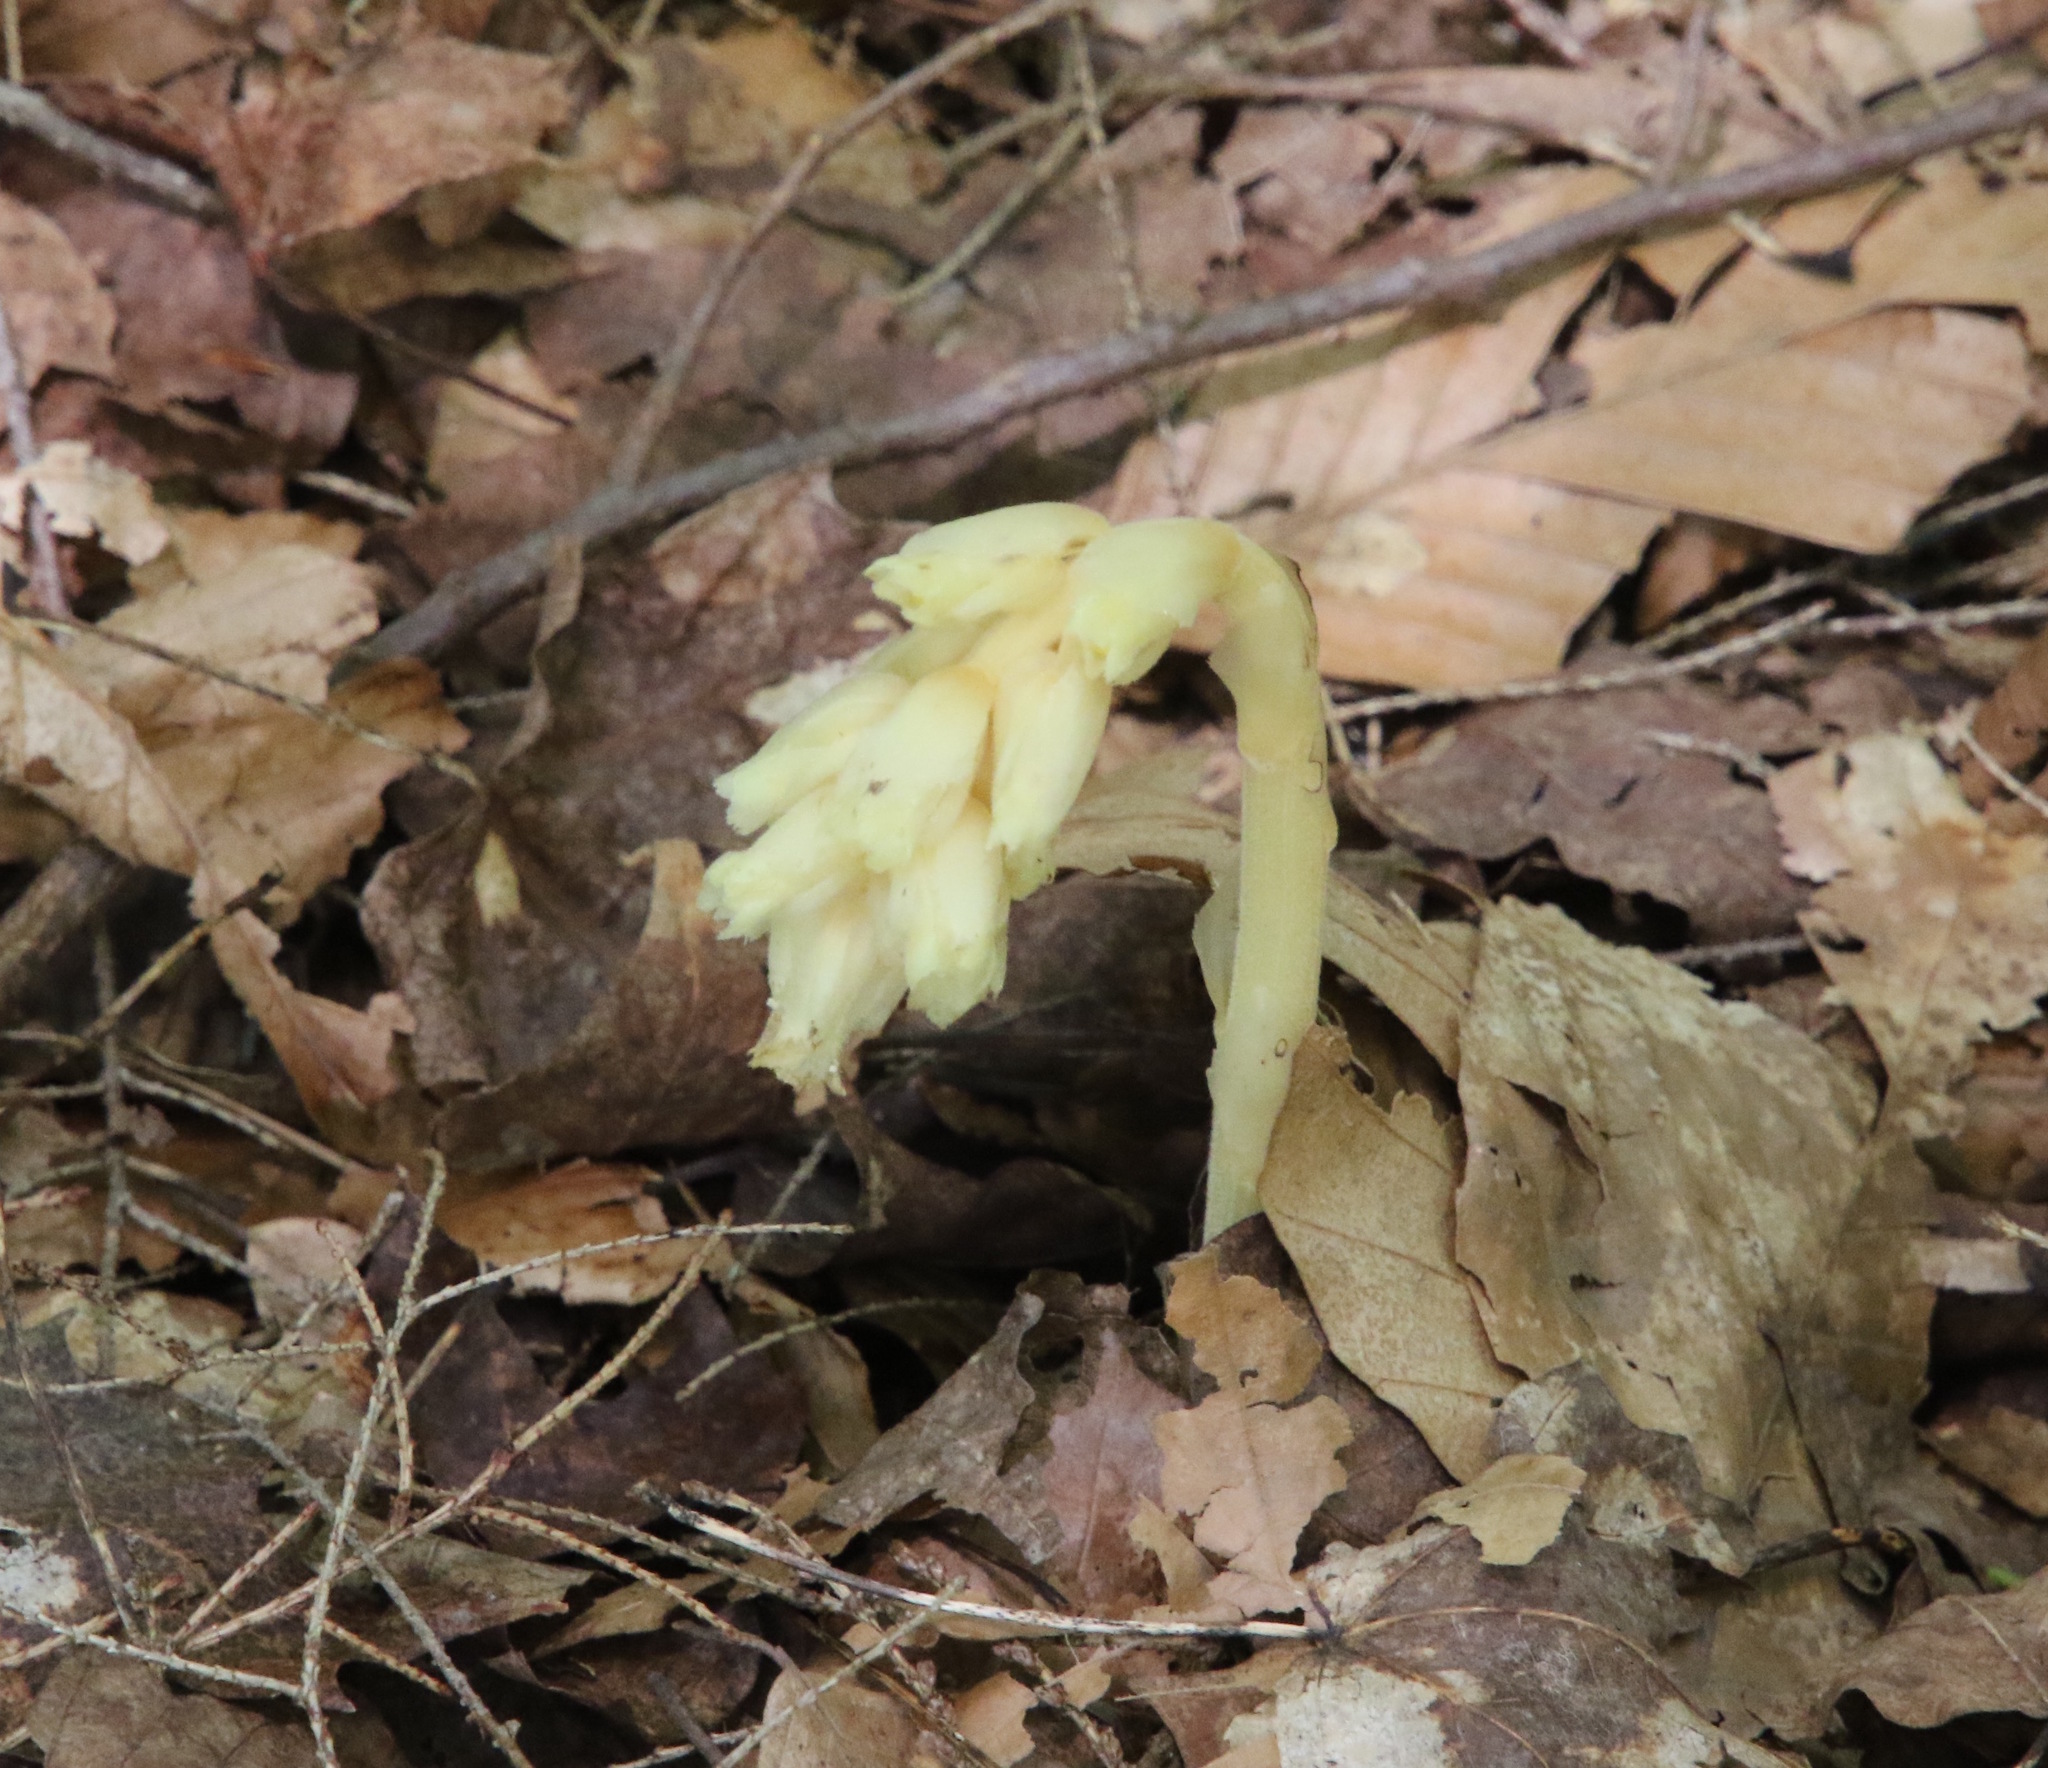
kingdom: Plantae
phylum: Tracheophyta
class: Magnoliopsida
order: Ericales
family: Ericaceae
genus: Hypopitys
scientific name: Hypopitys monotropa
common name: Yellow bird's-nest
